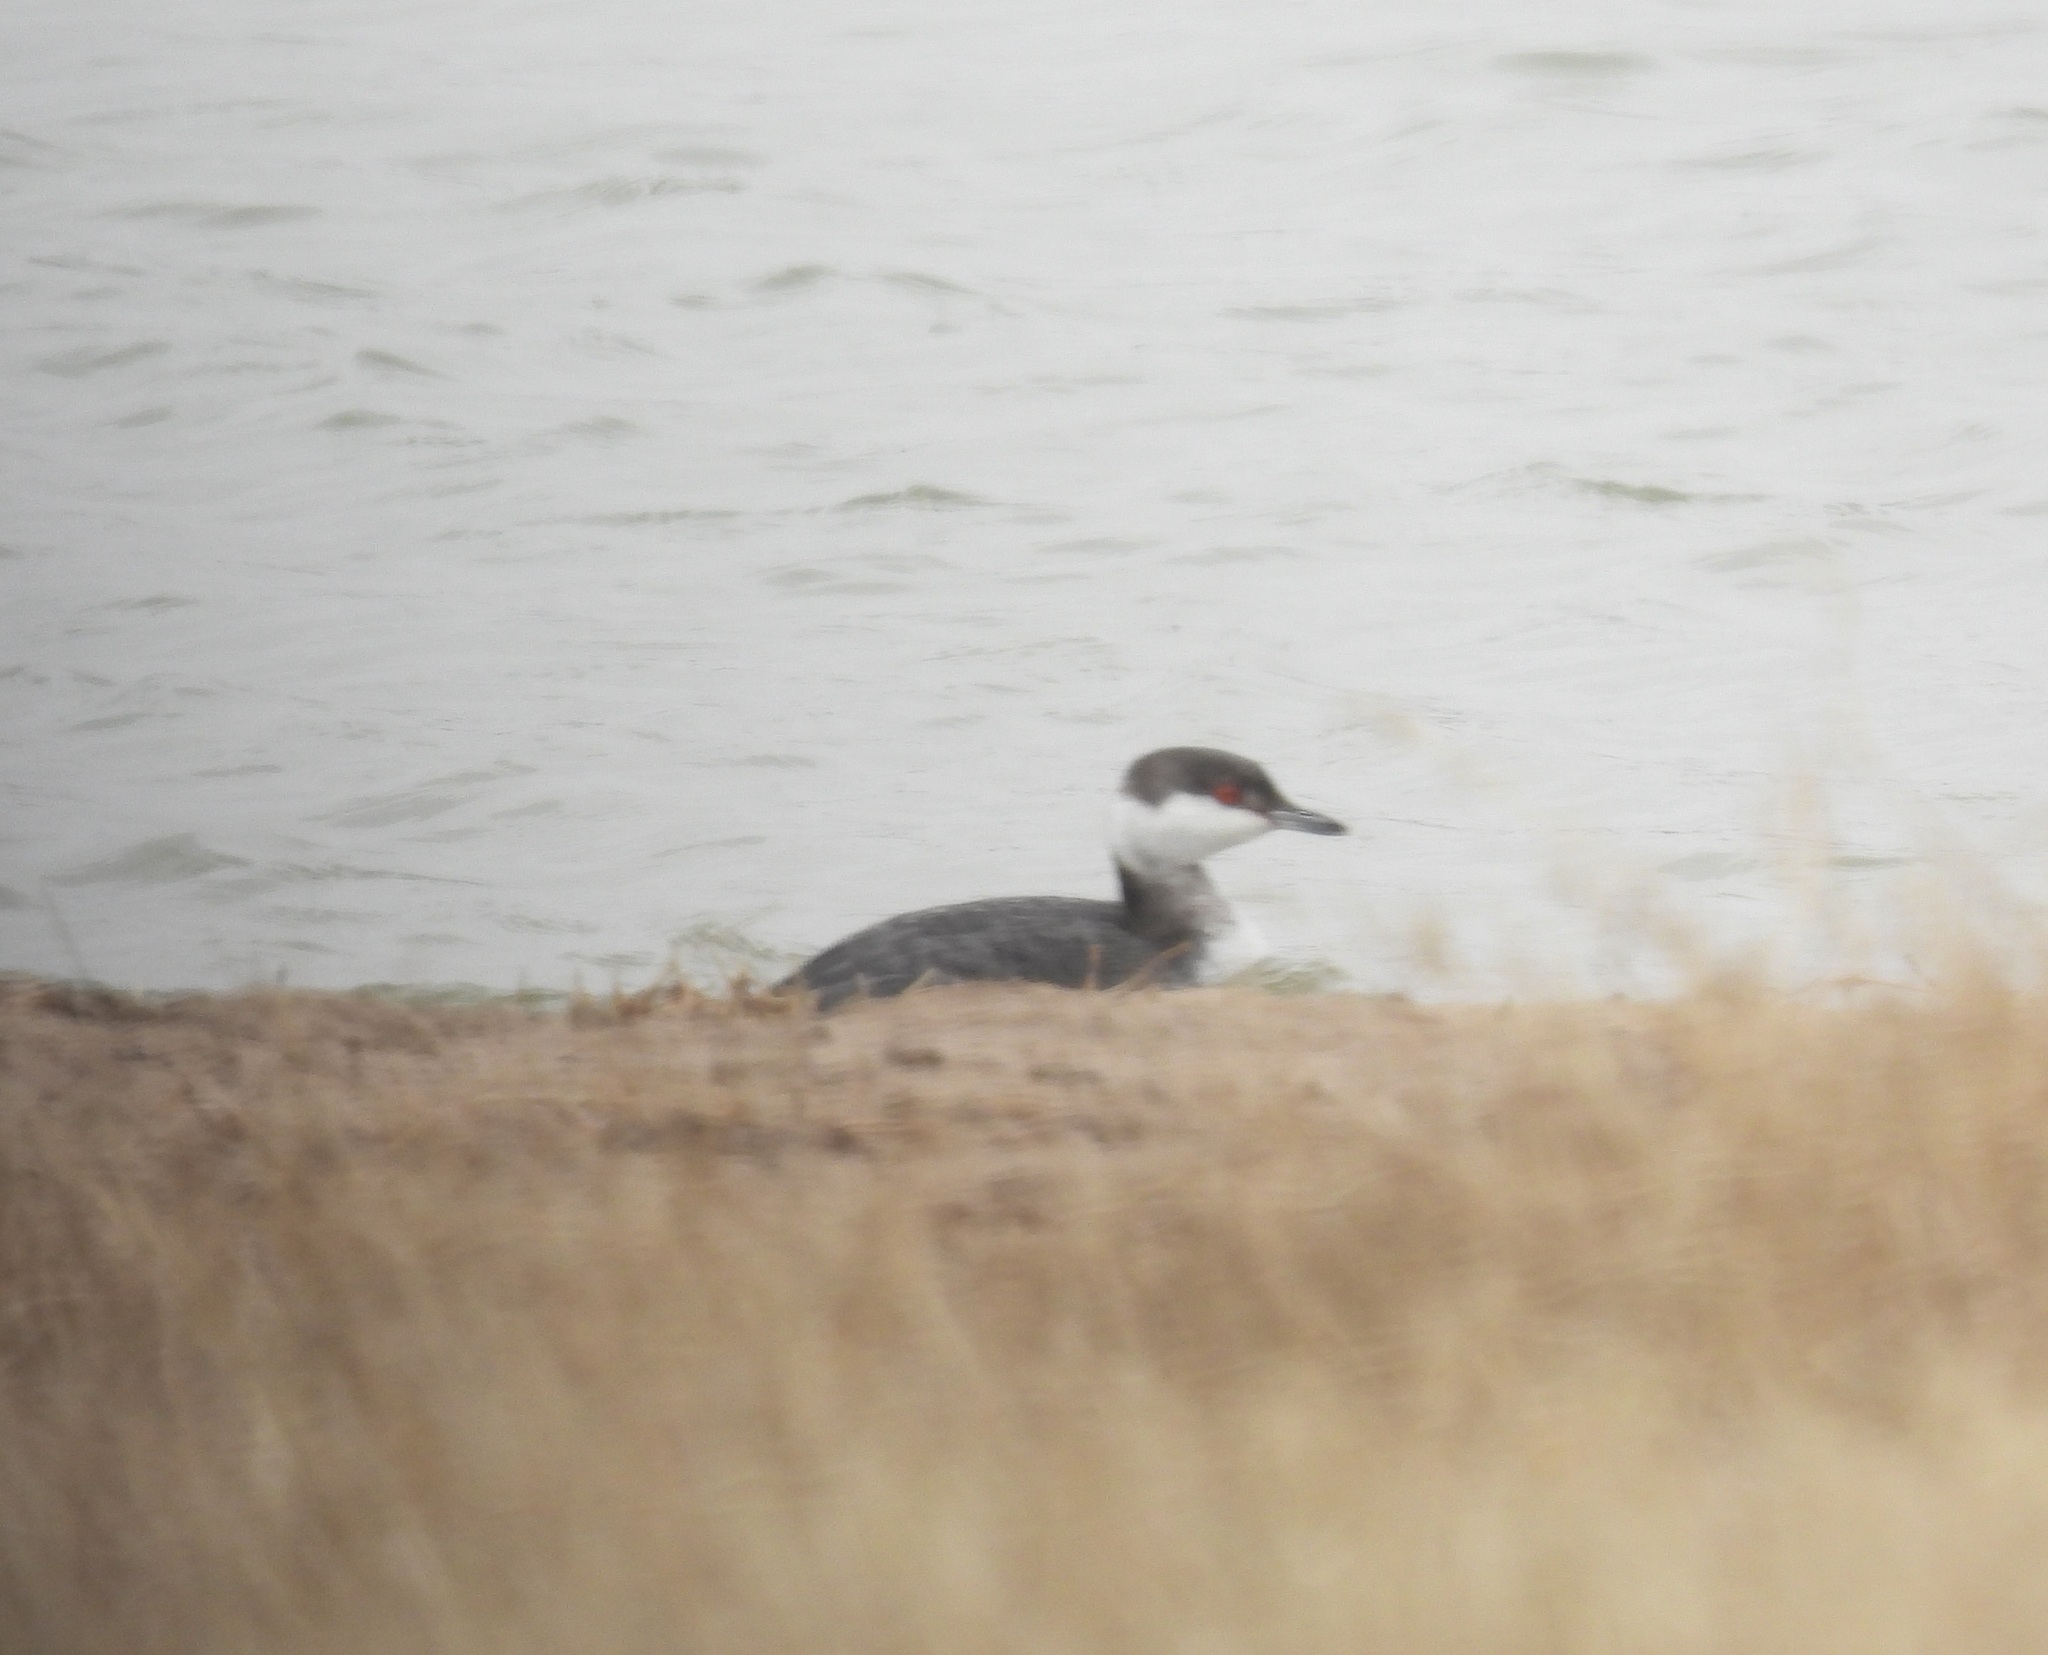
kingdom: Animalia
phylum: Chordata
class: Aves
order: Podicipediformes
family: Podicipedidae
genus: Podiceps
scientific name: Podiceps auritus
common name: Horned grebe
